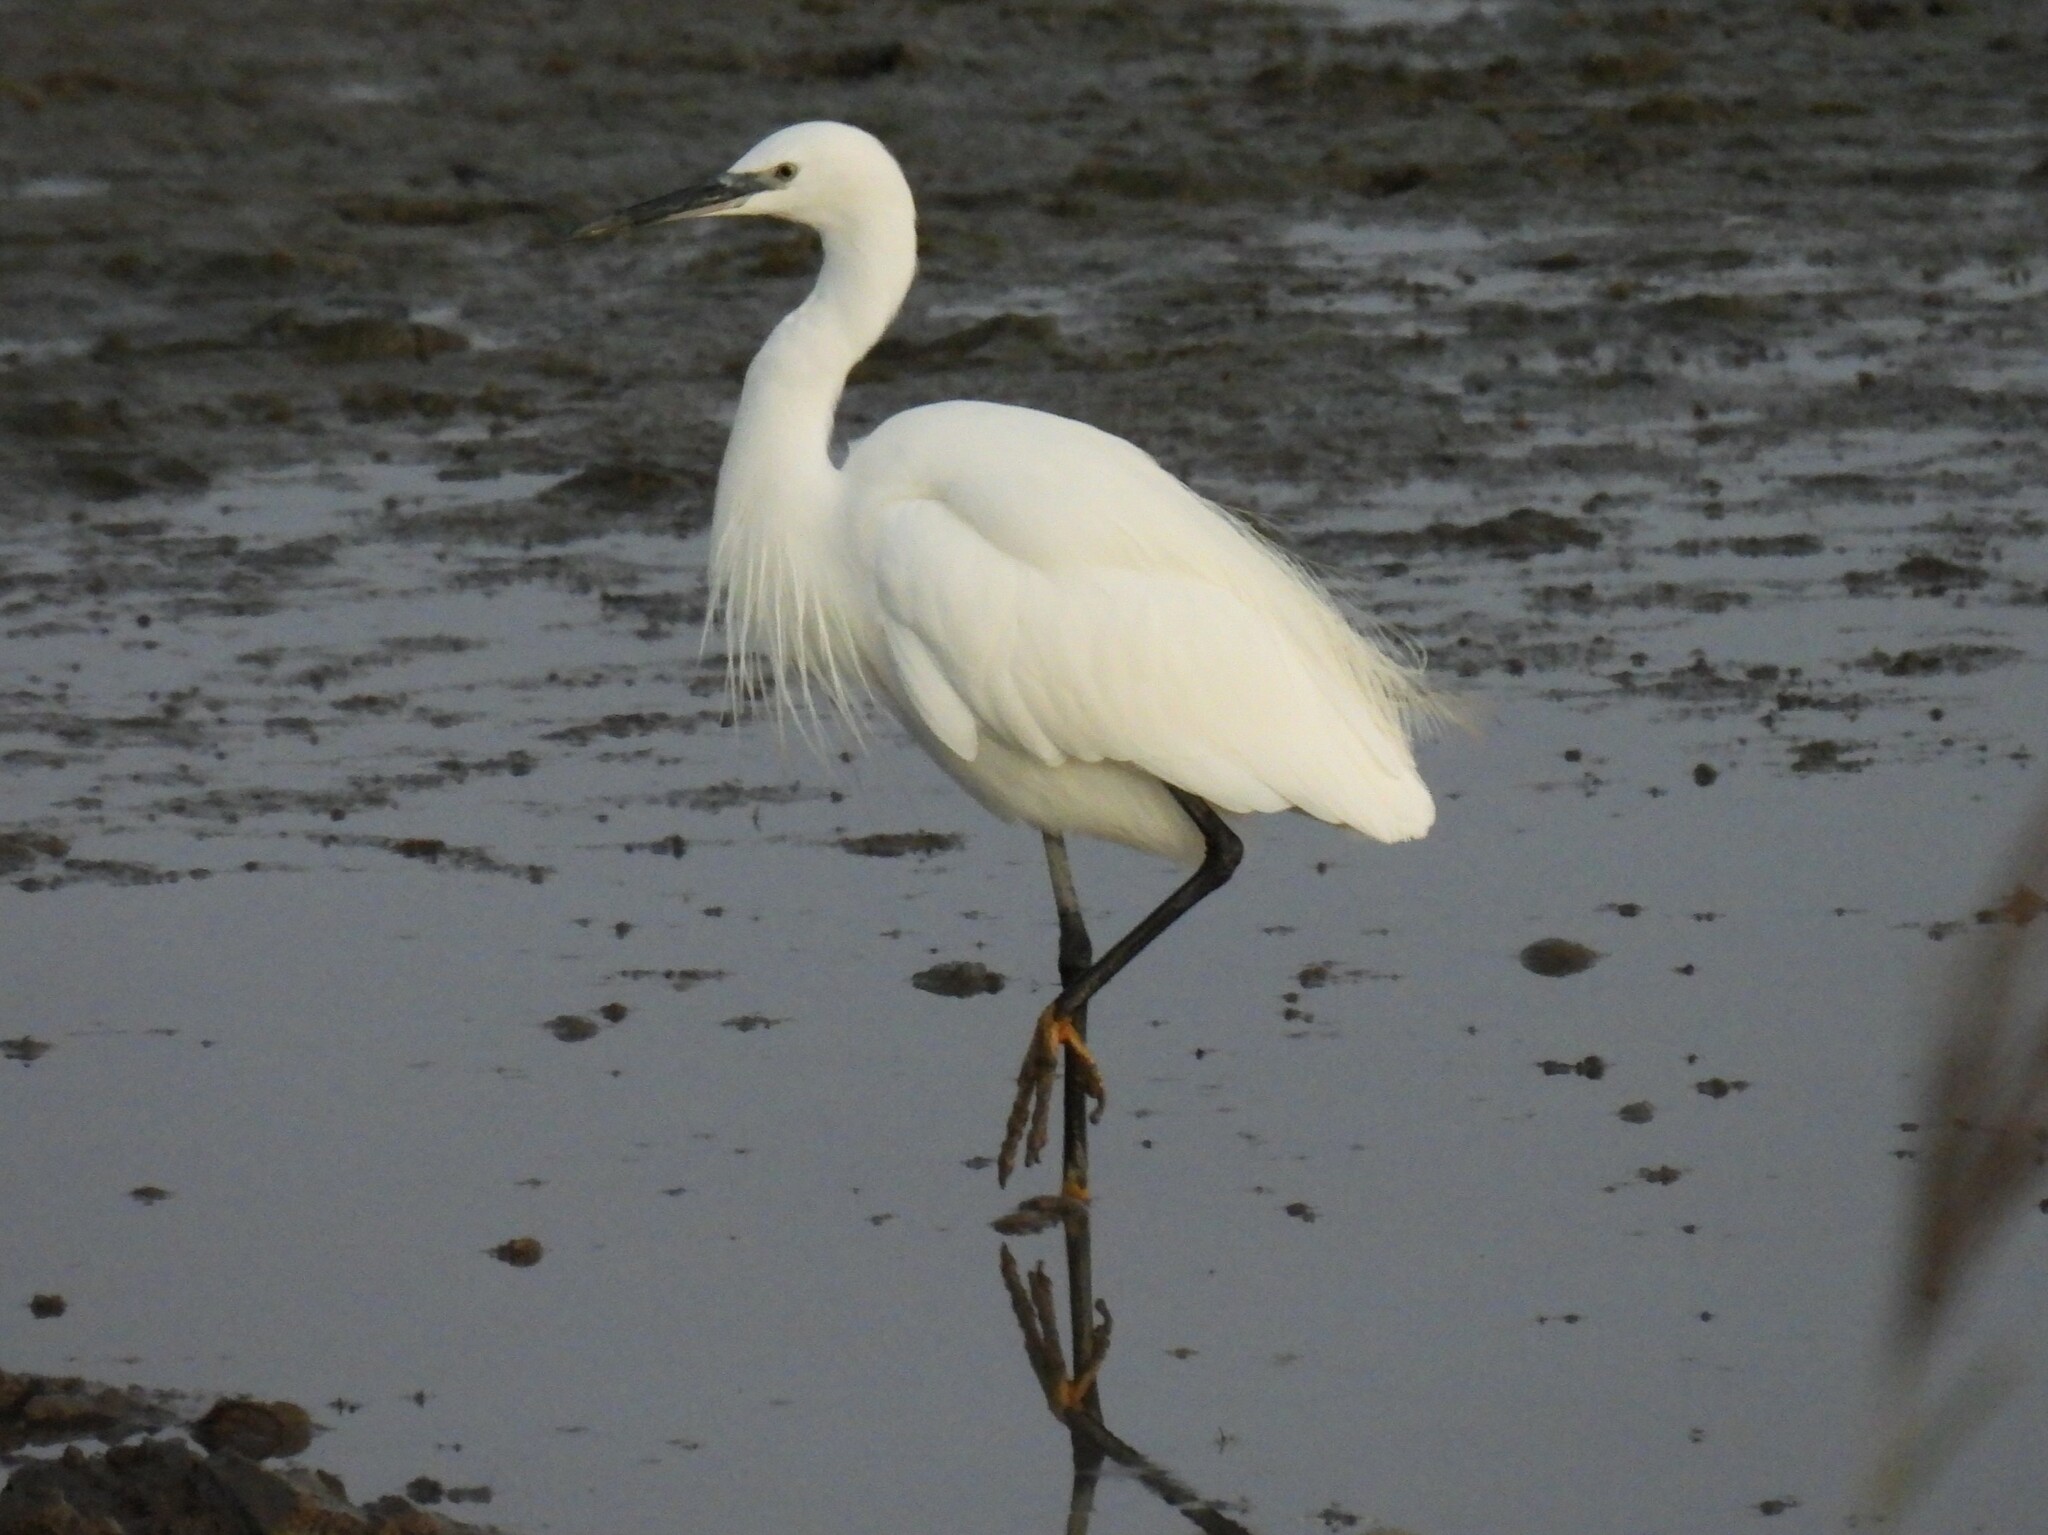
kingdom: Animalia
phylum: Chordata
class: Aves
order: Pelecaniformes
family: Ardeidae
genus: Egretta
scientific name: Egretta garzetta
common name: Little egret
